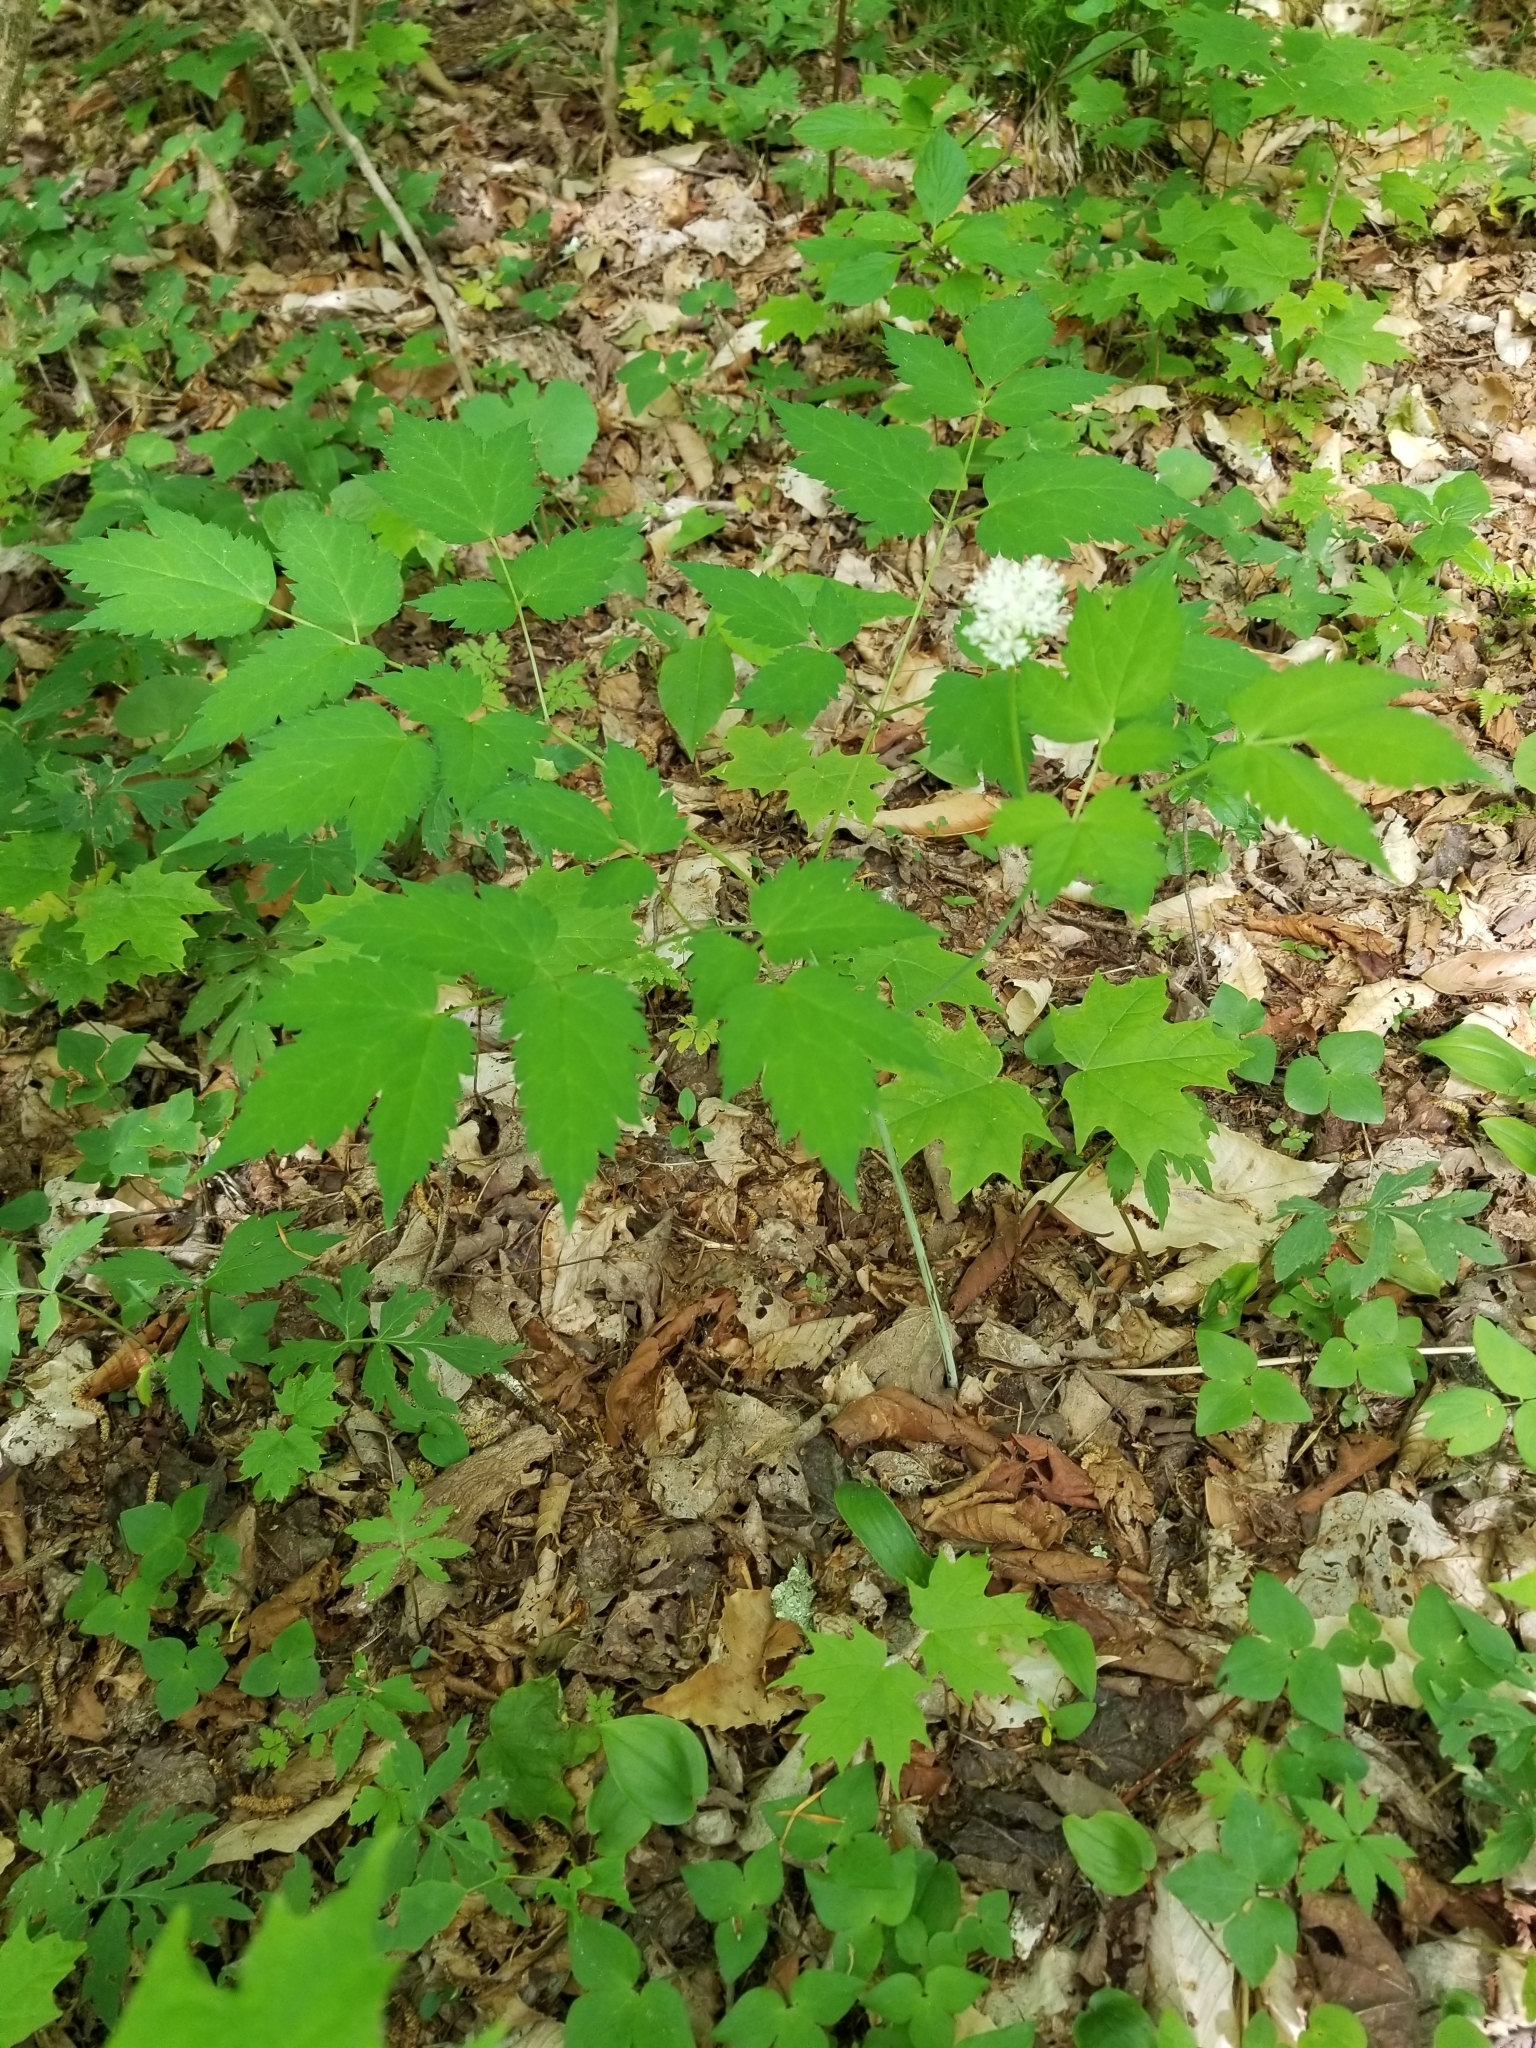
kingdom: Plantae
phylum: Tracheophyta
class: Magnoliopsida
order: Ranunculales
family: Ranunculaceae
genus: Actaea
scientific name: Actaea pachypoda
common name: Doll's-eyes
